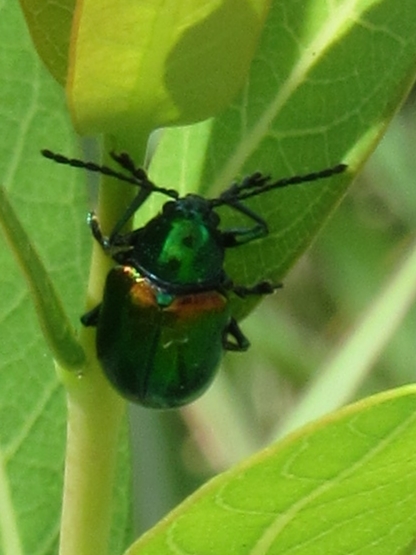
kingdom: Animalia
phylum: Arthropoda
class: Insecta
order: Coleoptera
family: Chrysomelidae
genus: Chrysochus
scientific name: Chrysochus auratus
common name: Dogbane leaf beetle
